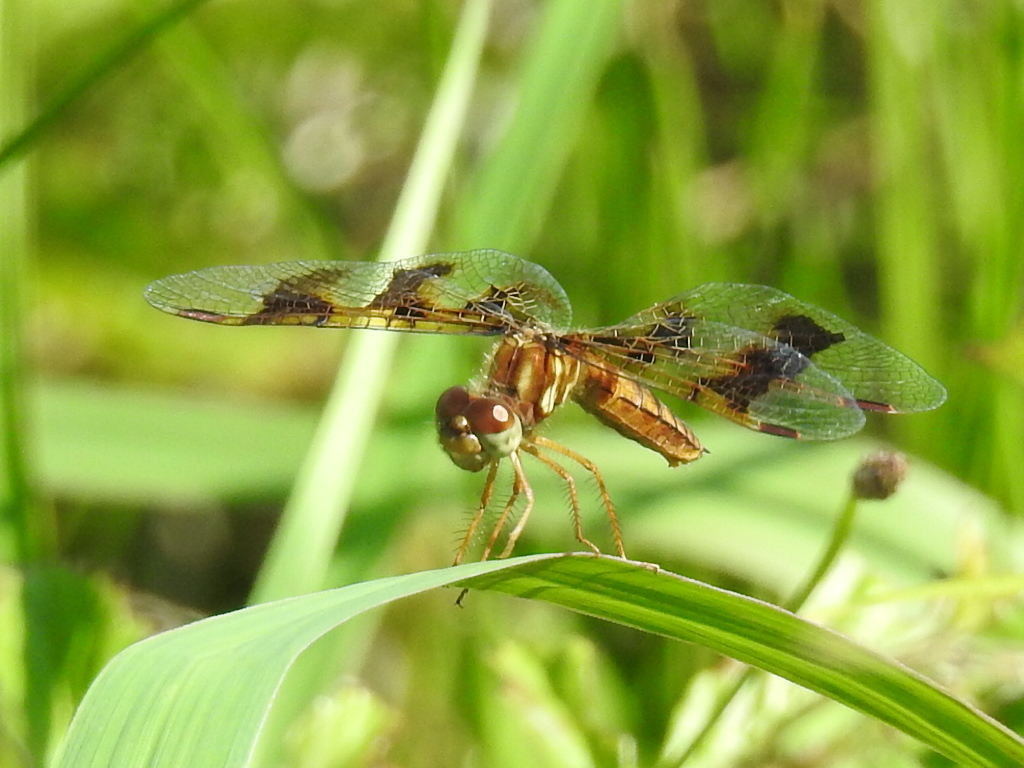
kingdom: Animalia
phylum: Arthropoda
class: Insecta
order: Odonata
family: Libellulidae
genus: Perithemis
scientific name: Perithemis tenera
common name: Eastern amberwing
